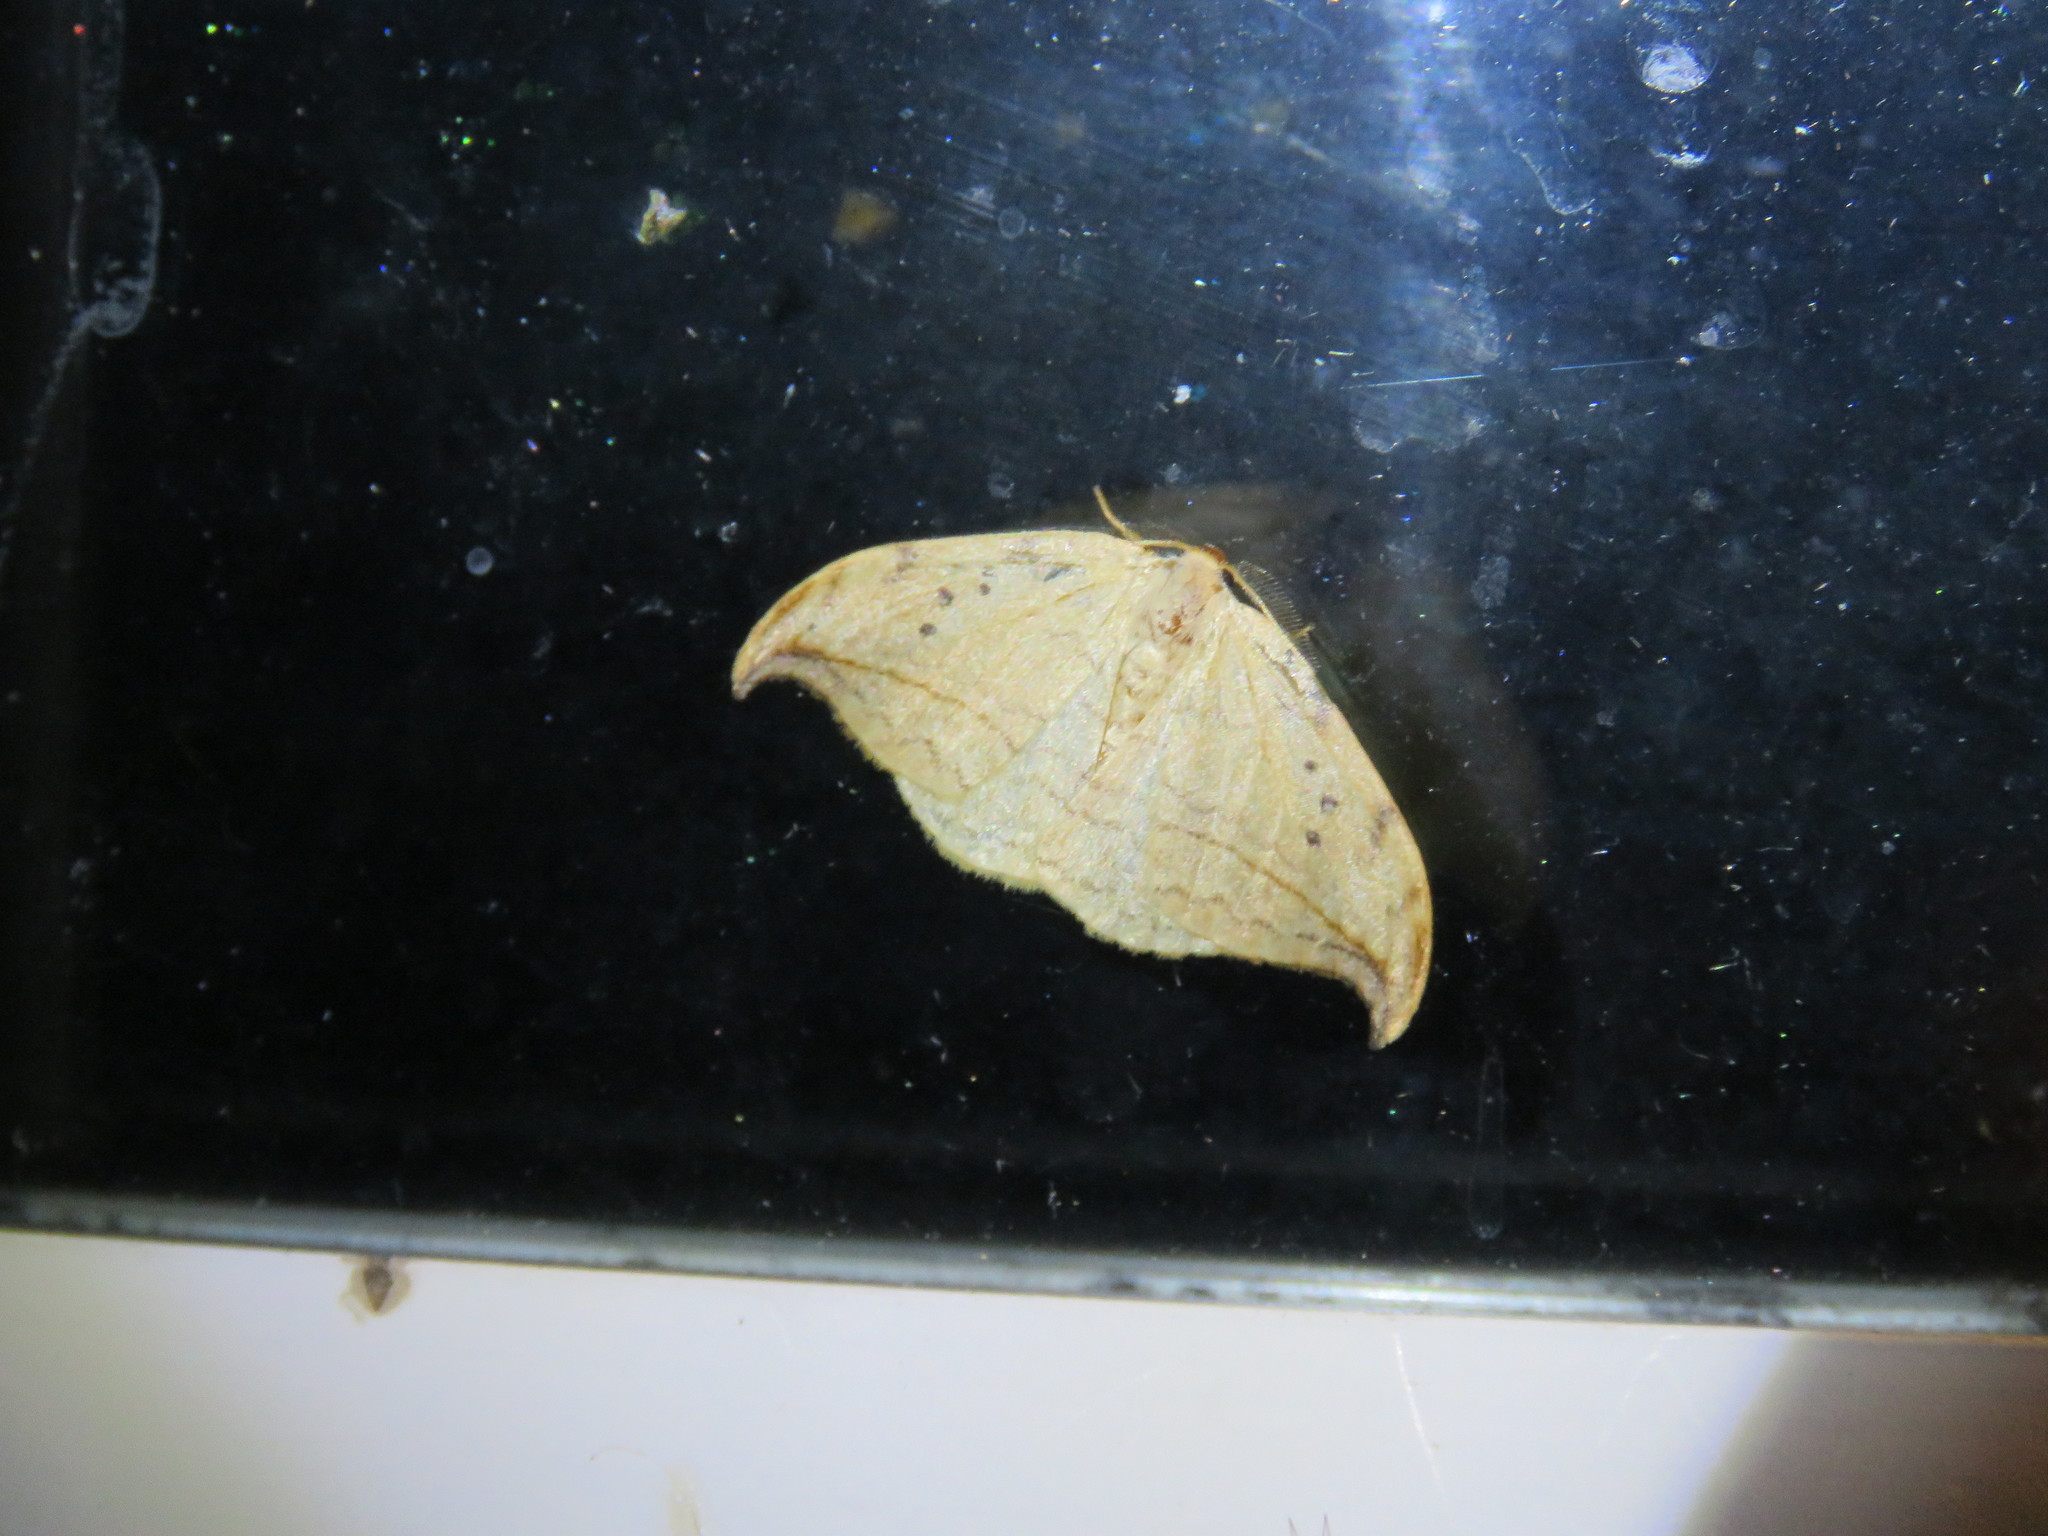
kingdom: Animalia
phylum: Arthropoda
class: Insecta
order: Lepidoptera
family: Drepanidae
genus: Drepana
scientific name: Drepana arcuata
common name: Arched hooktip moth
